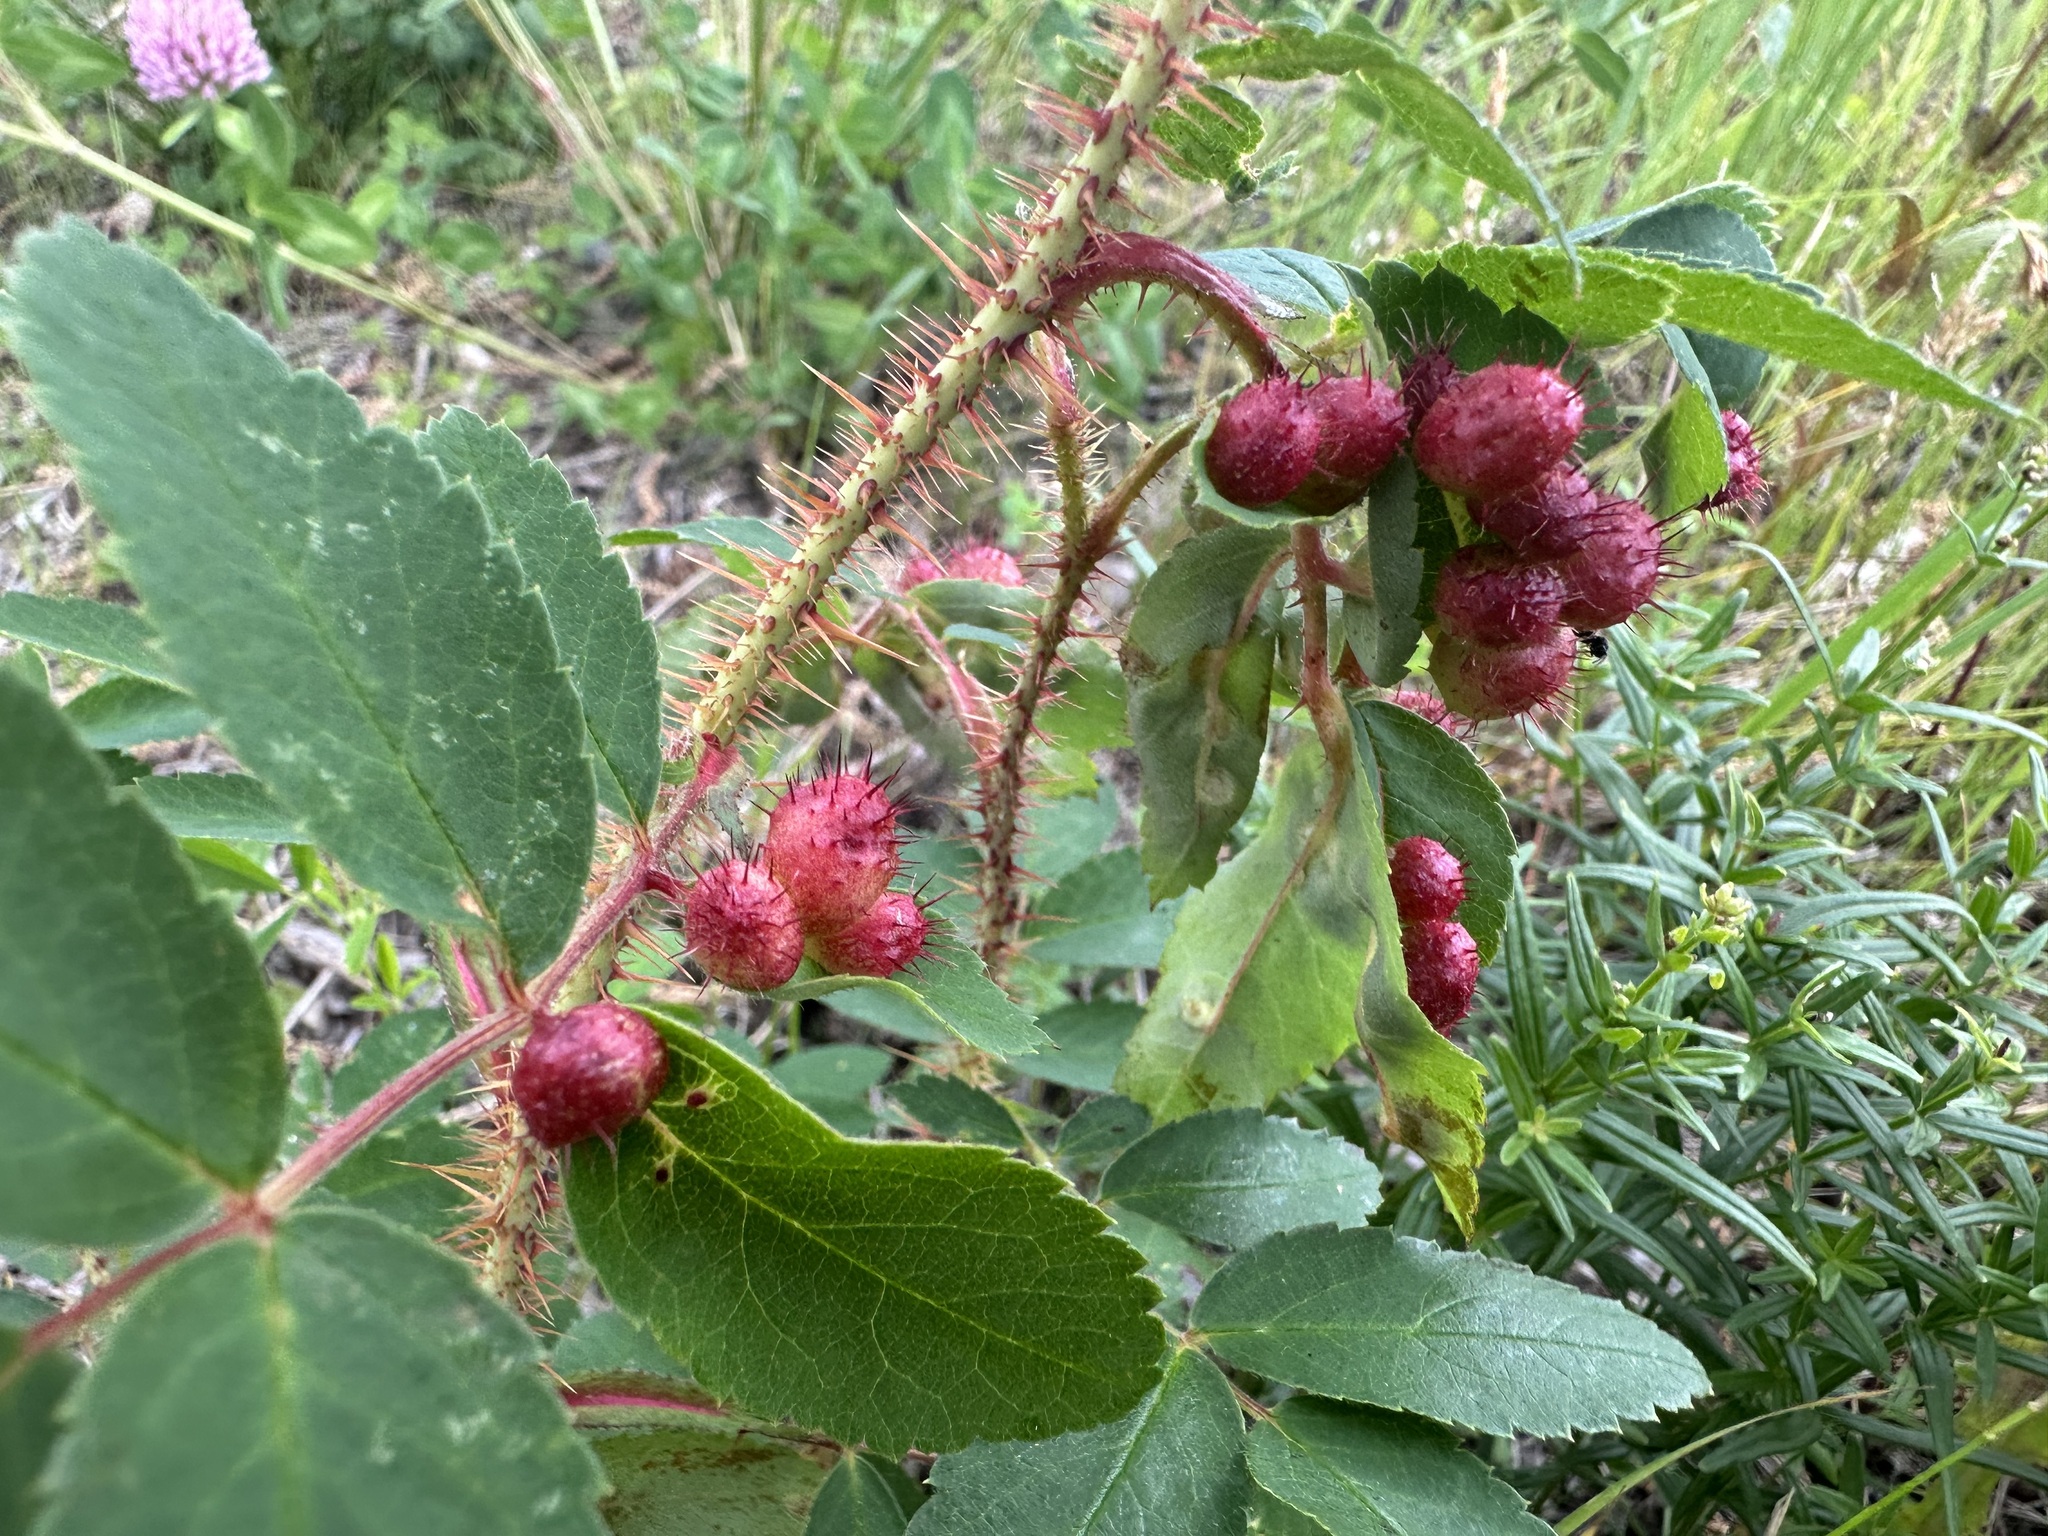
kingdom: Animalia
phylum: Arthropoda
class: Insecta
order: Hymenoptera
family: Cynipidae
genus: Diplolepis
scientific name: Diplolepis polita
